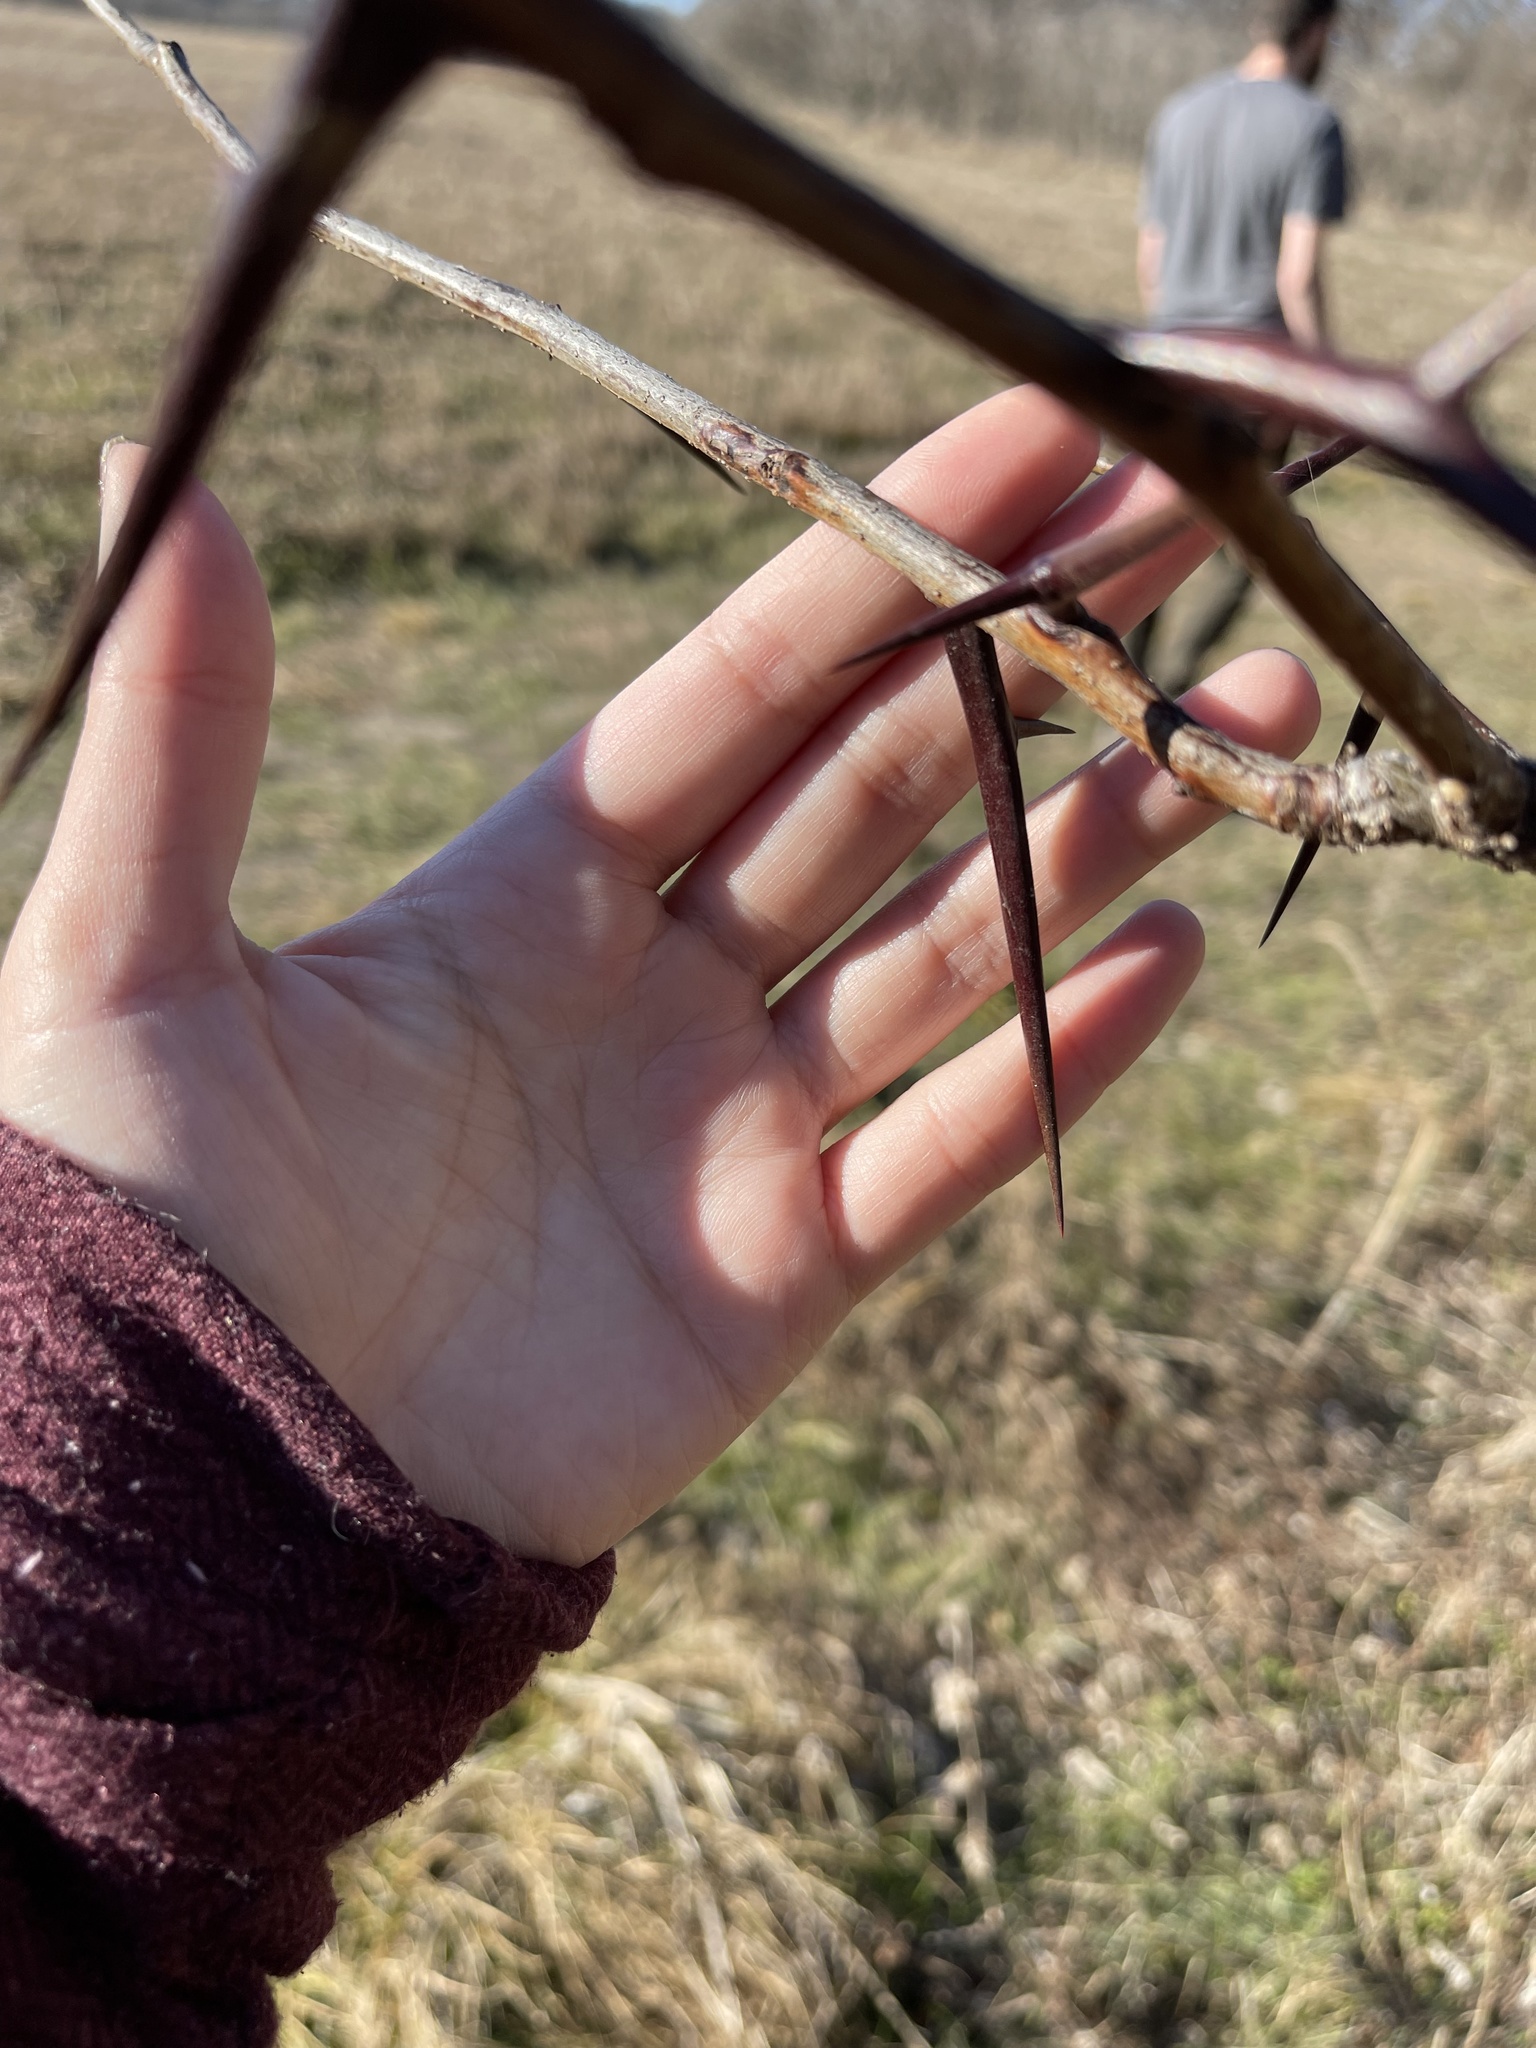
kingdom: Plantae
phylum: Tracheophyta
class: Magnoliopsida
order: Fabales
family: Fabaceae
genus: Gleditsia
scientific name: Gleditsia triacanthos
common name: Common honeylocust
